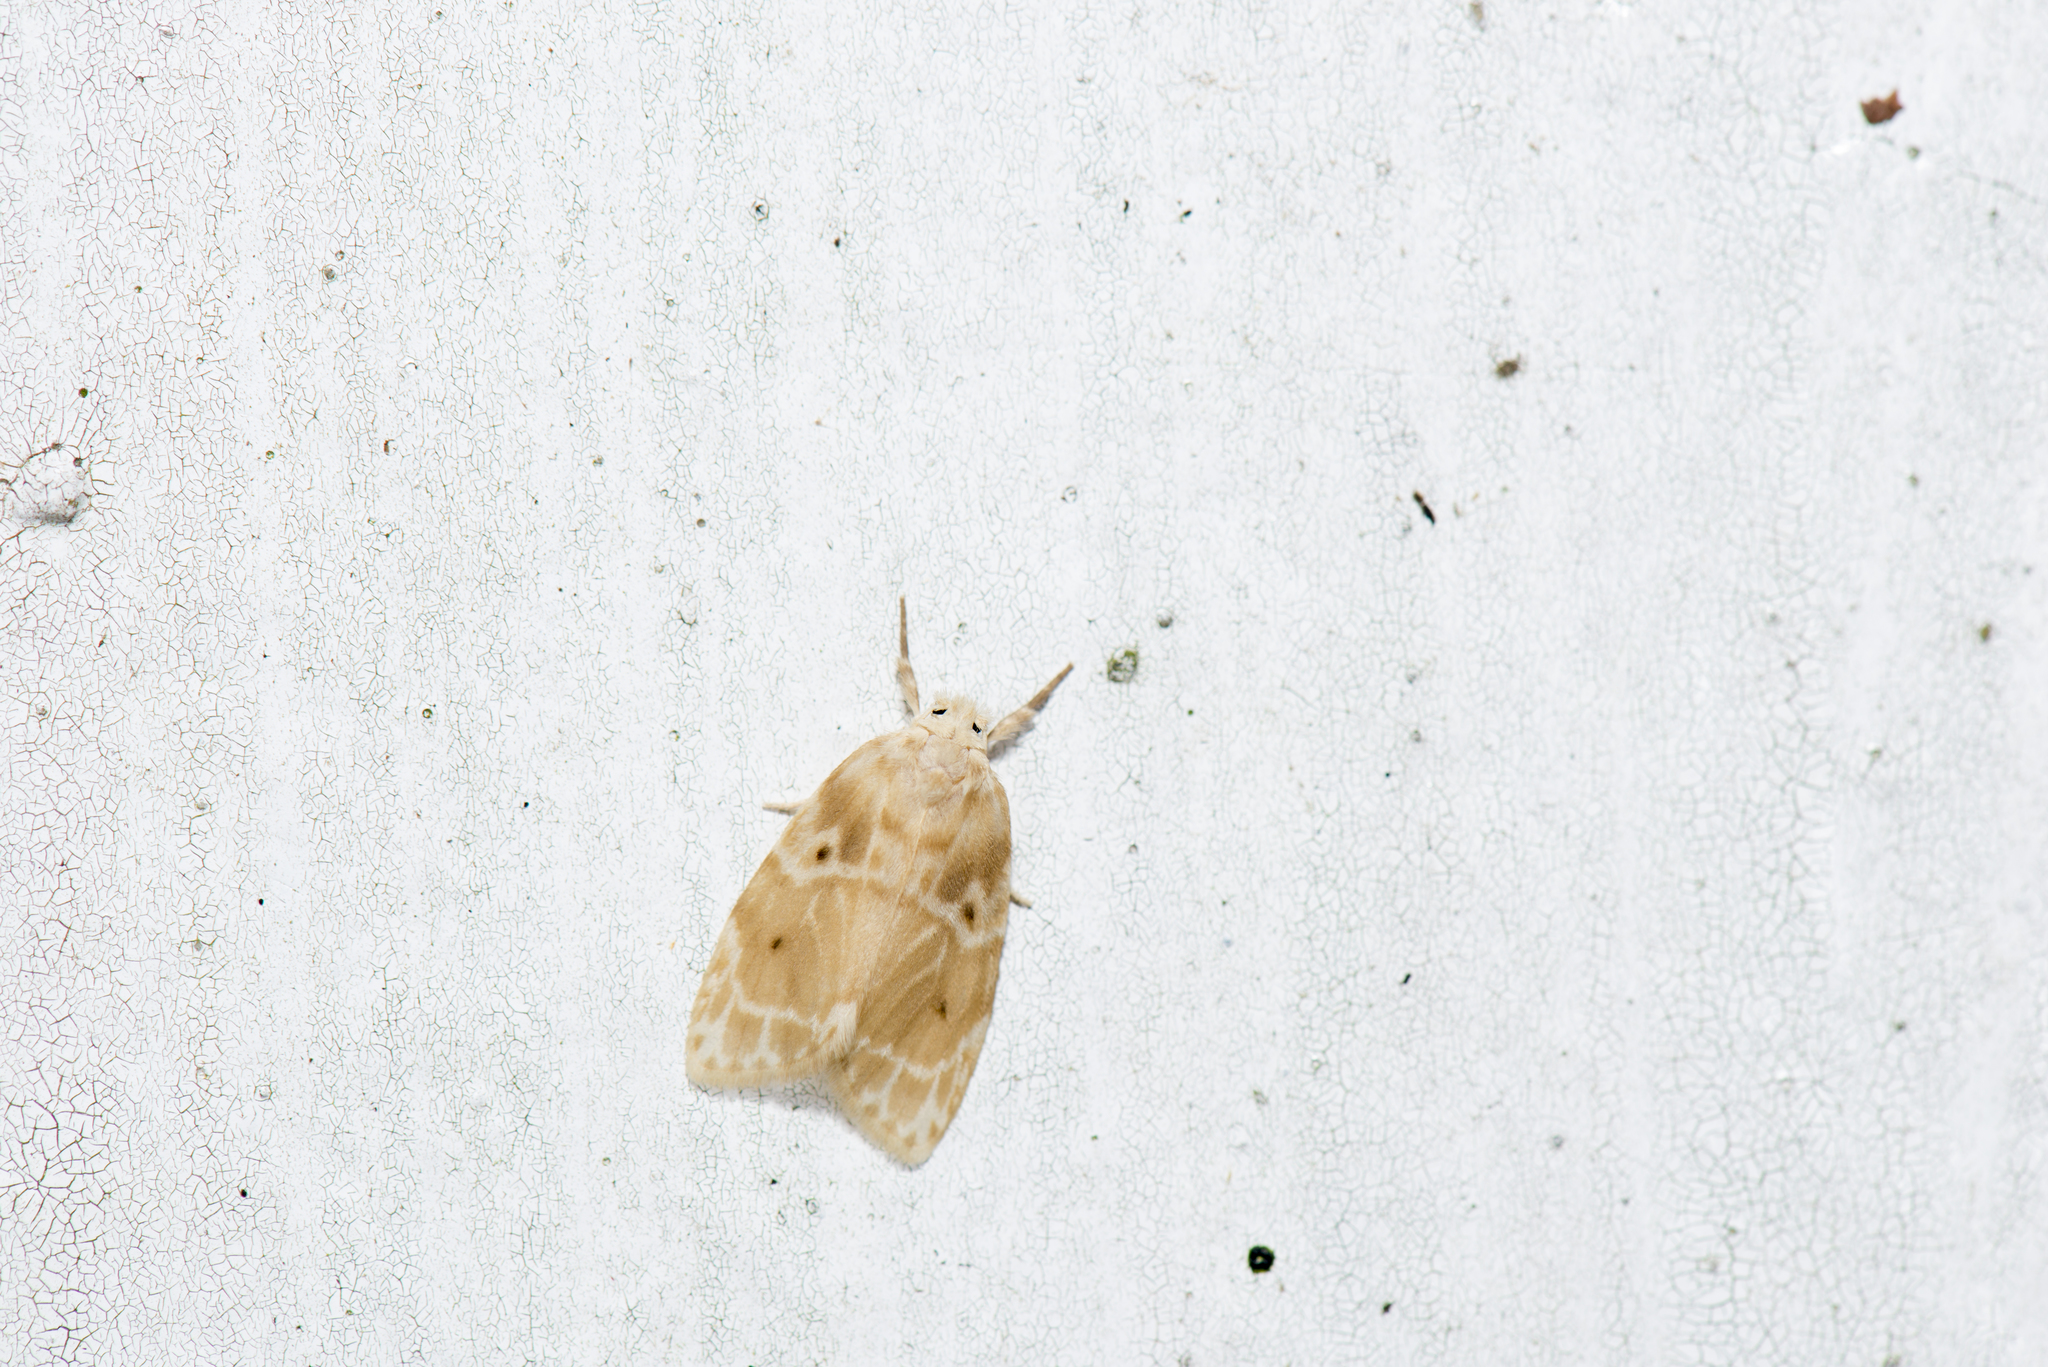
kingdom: Animalia
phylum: Arthropoda
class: Insecta
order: Lepidoptera
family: Erebidae
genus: Schistophleps
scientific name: Schistophleps bipuncta
